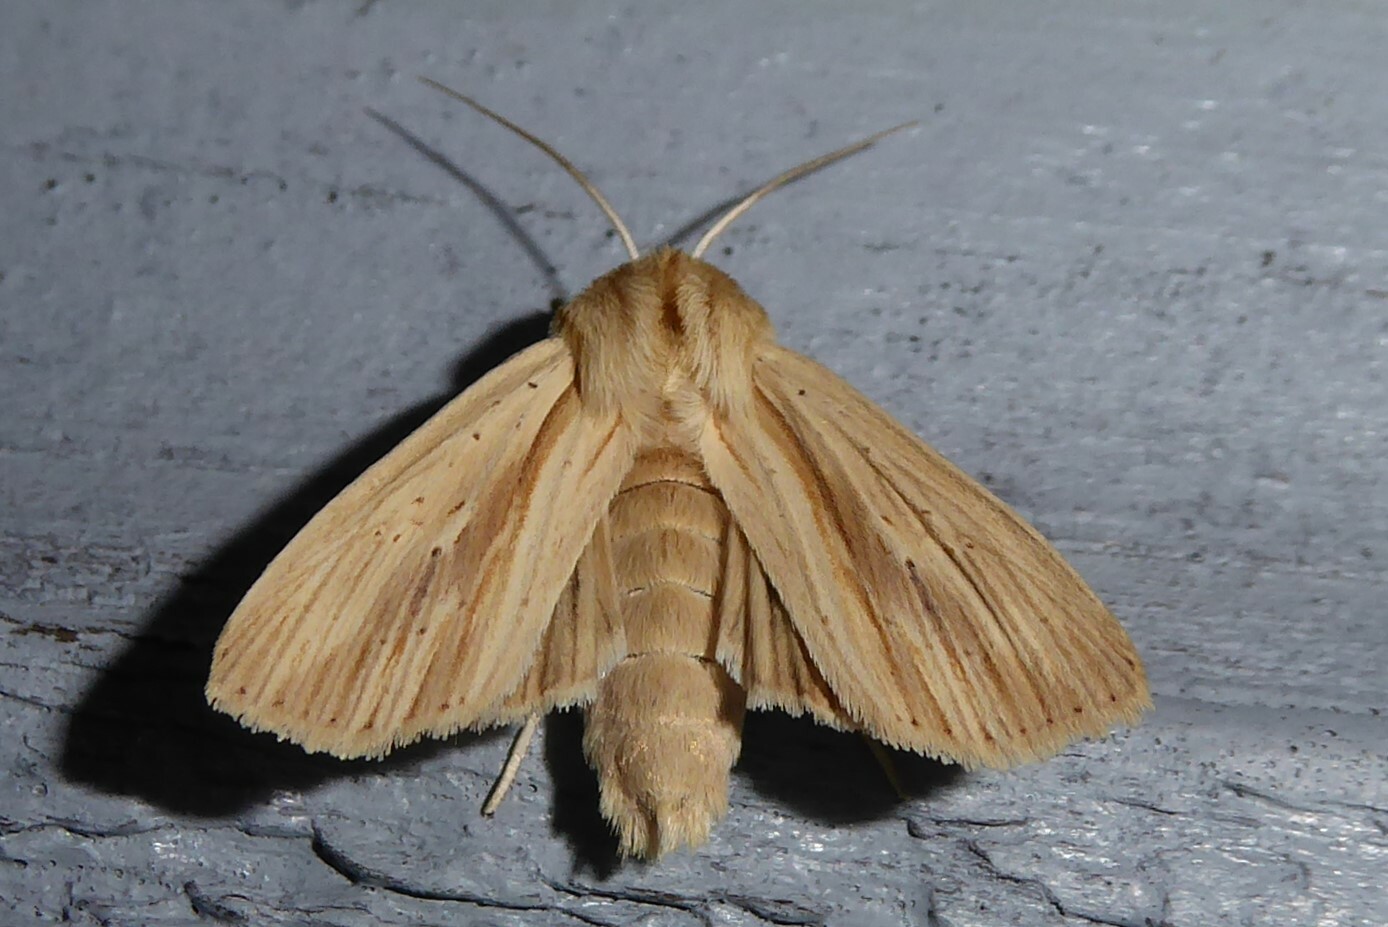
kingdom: Animalia
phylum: Arthropoda
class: Insecta
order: Lepidoptera
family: Noctuidae
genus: Ichneutica
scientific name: Ichneutica semivittata
